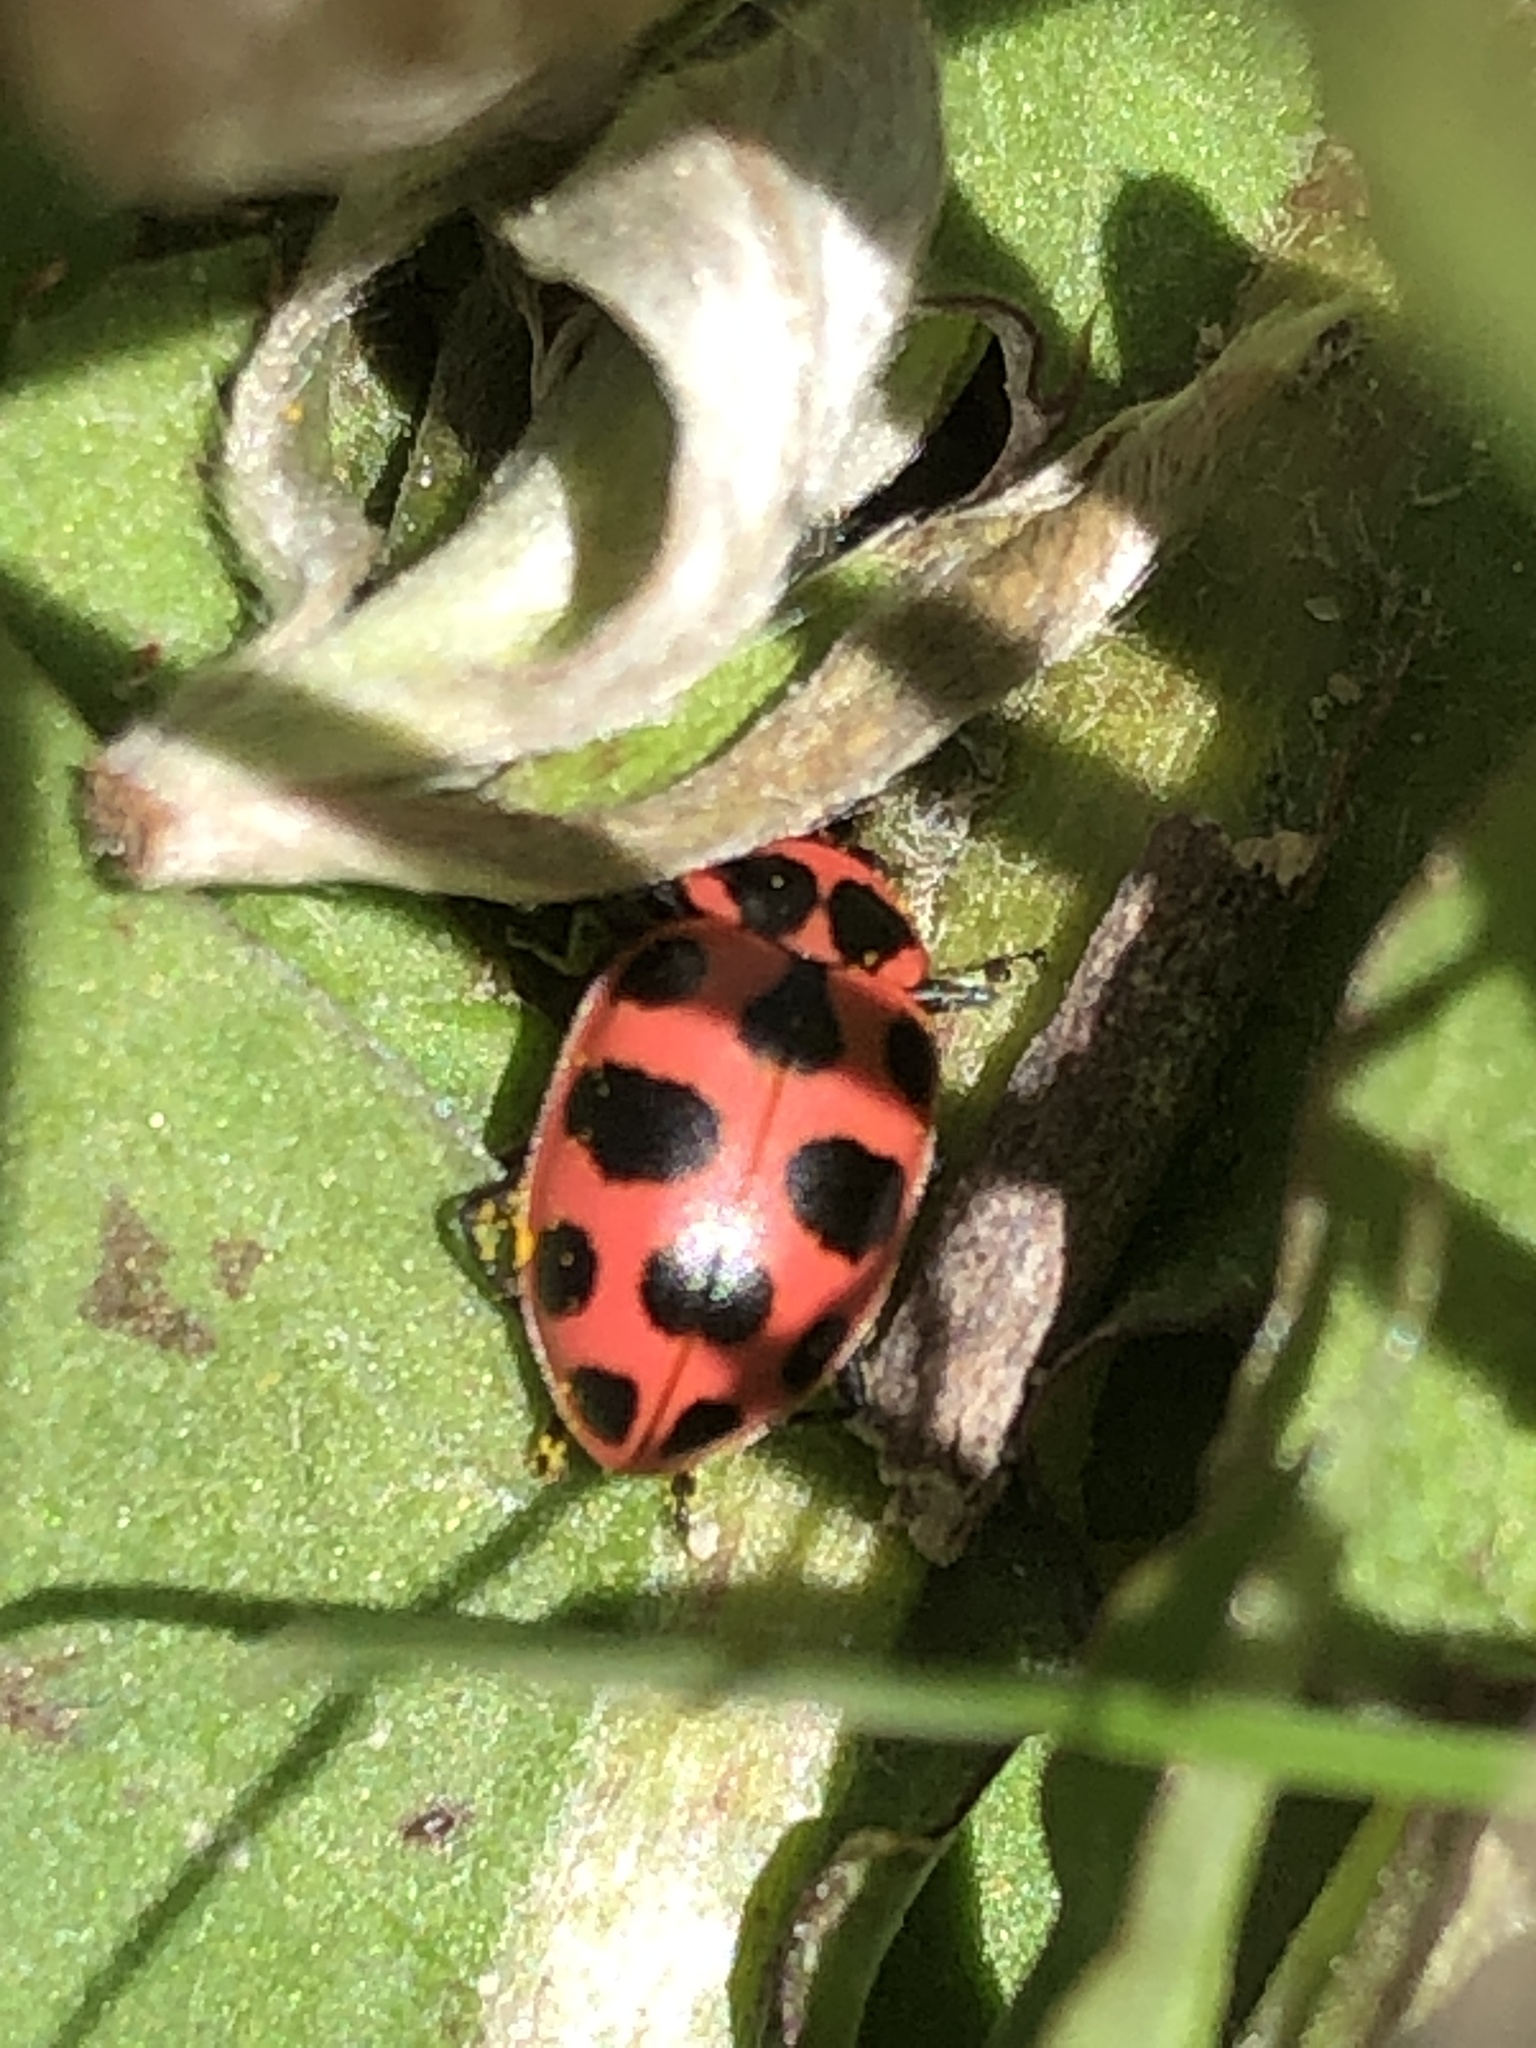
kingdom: Animalia
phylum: Arthropoda
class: Insecta
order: Coleoptera
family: Coccinellidae
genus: Coleomegilla
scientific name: Coleomegilla maculata
